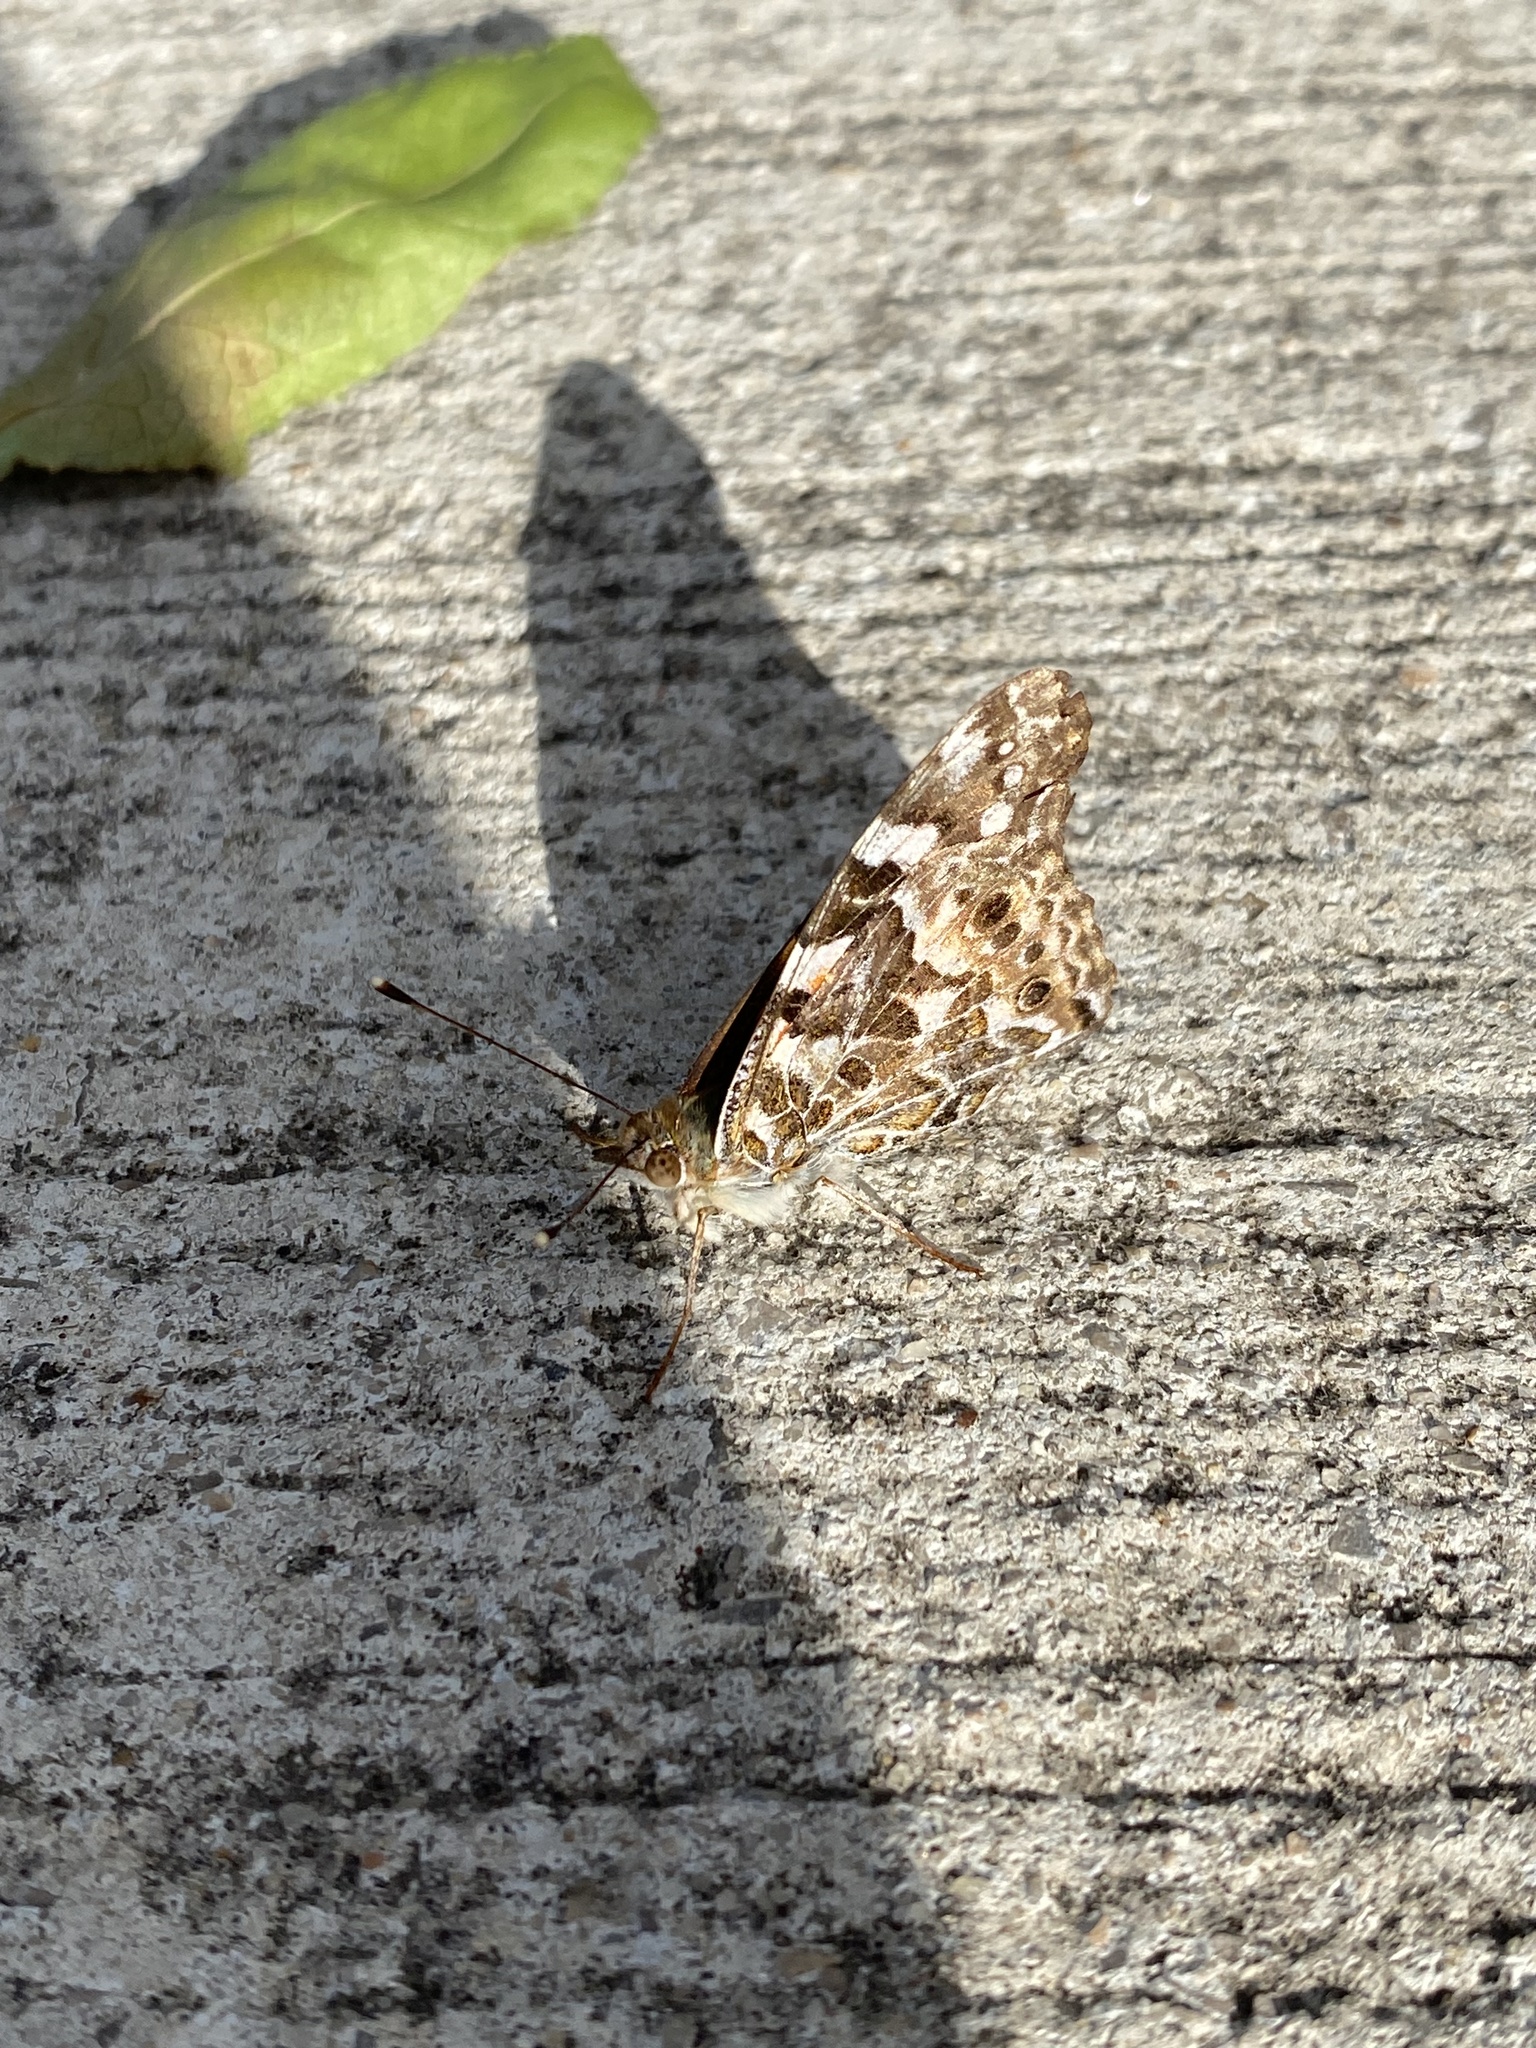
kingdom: Animalia
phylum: Arthropoda
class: Insecta
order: Lepidoptera
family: Nymphalidae
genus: Vanessa
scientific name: Vanessa kershawi
